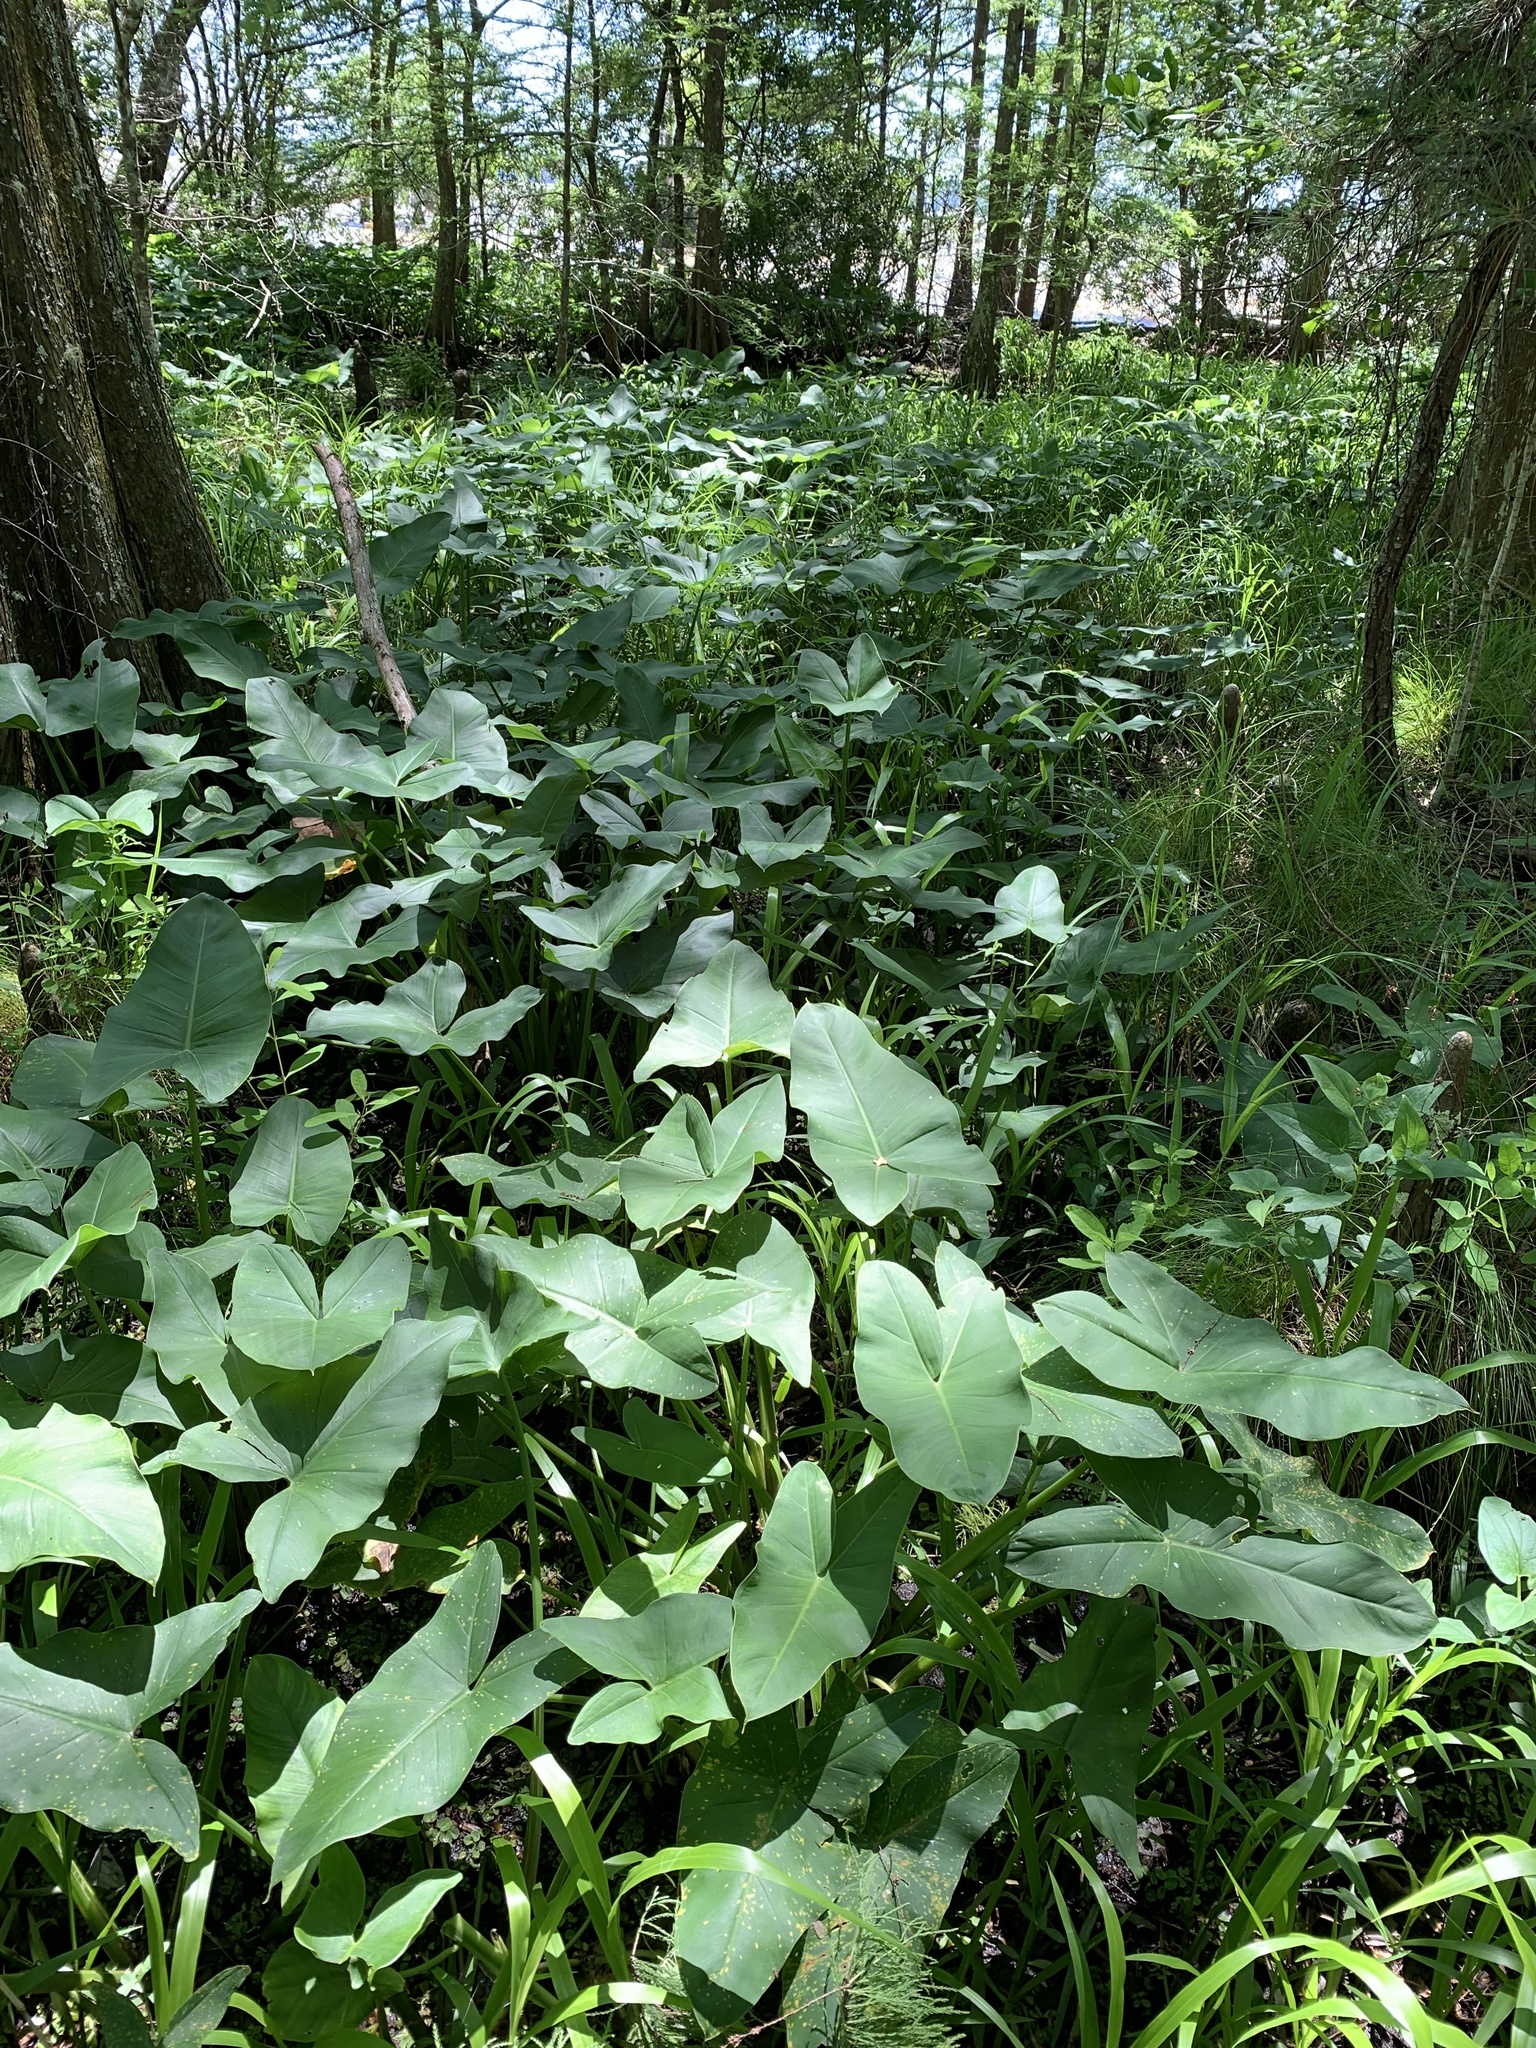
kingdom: Plantae
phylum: Tracheophyta
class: Liliopsida
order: Alismatales
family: Araceae
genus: Peltandra
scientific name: Peltandra virginica
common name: Arrow arum
